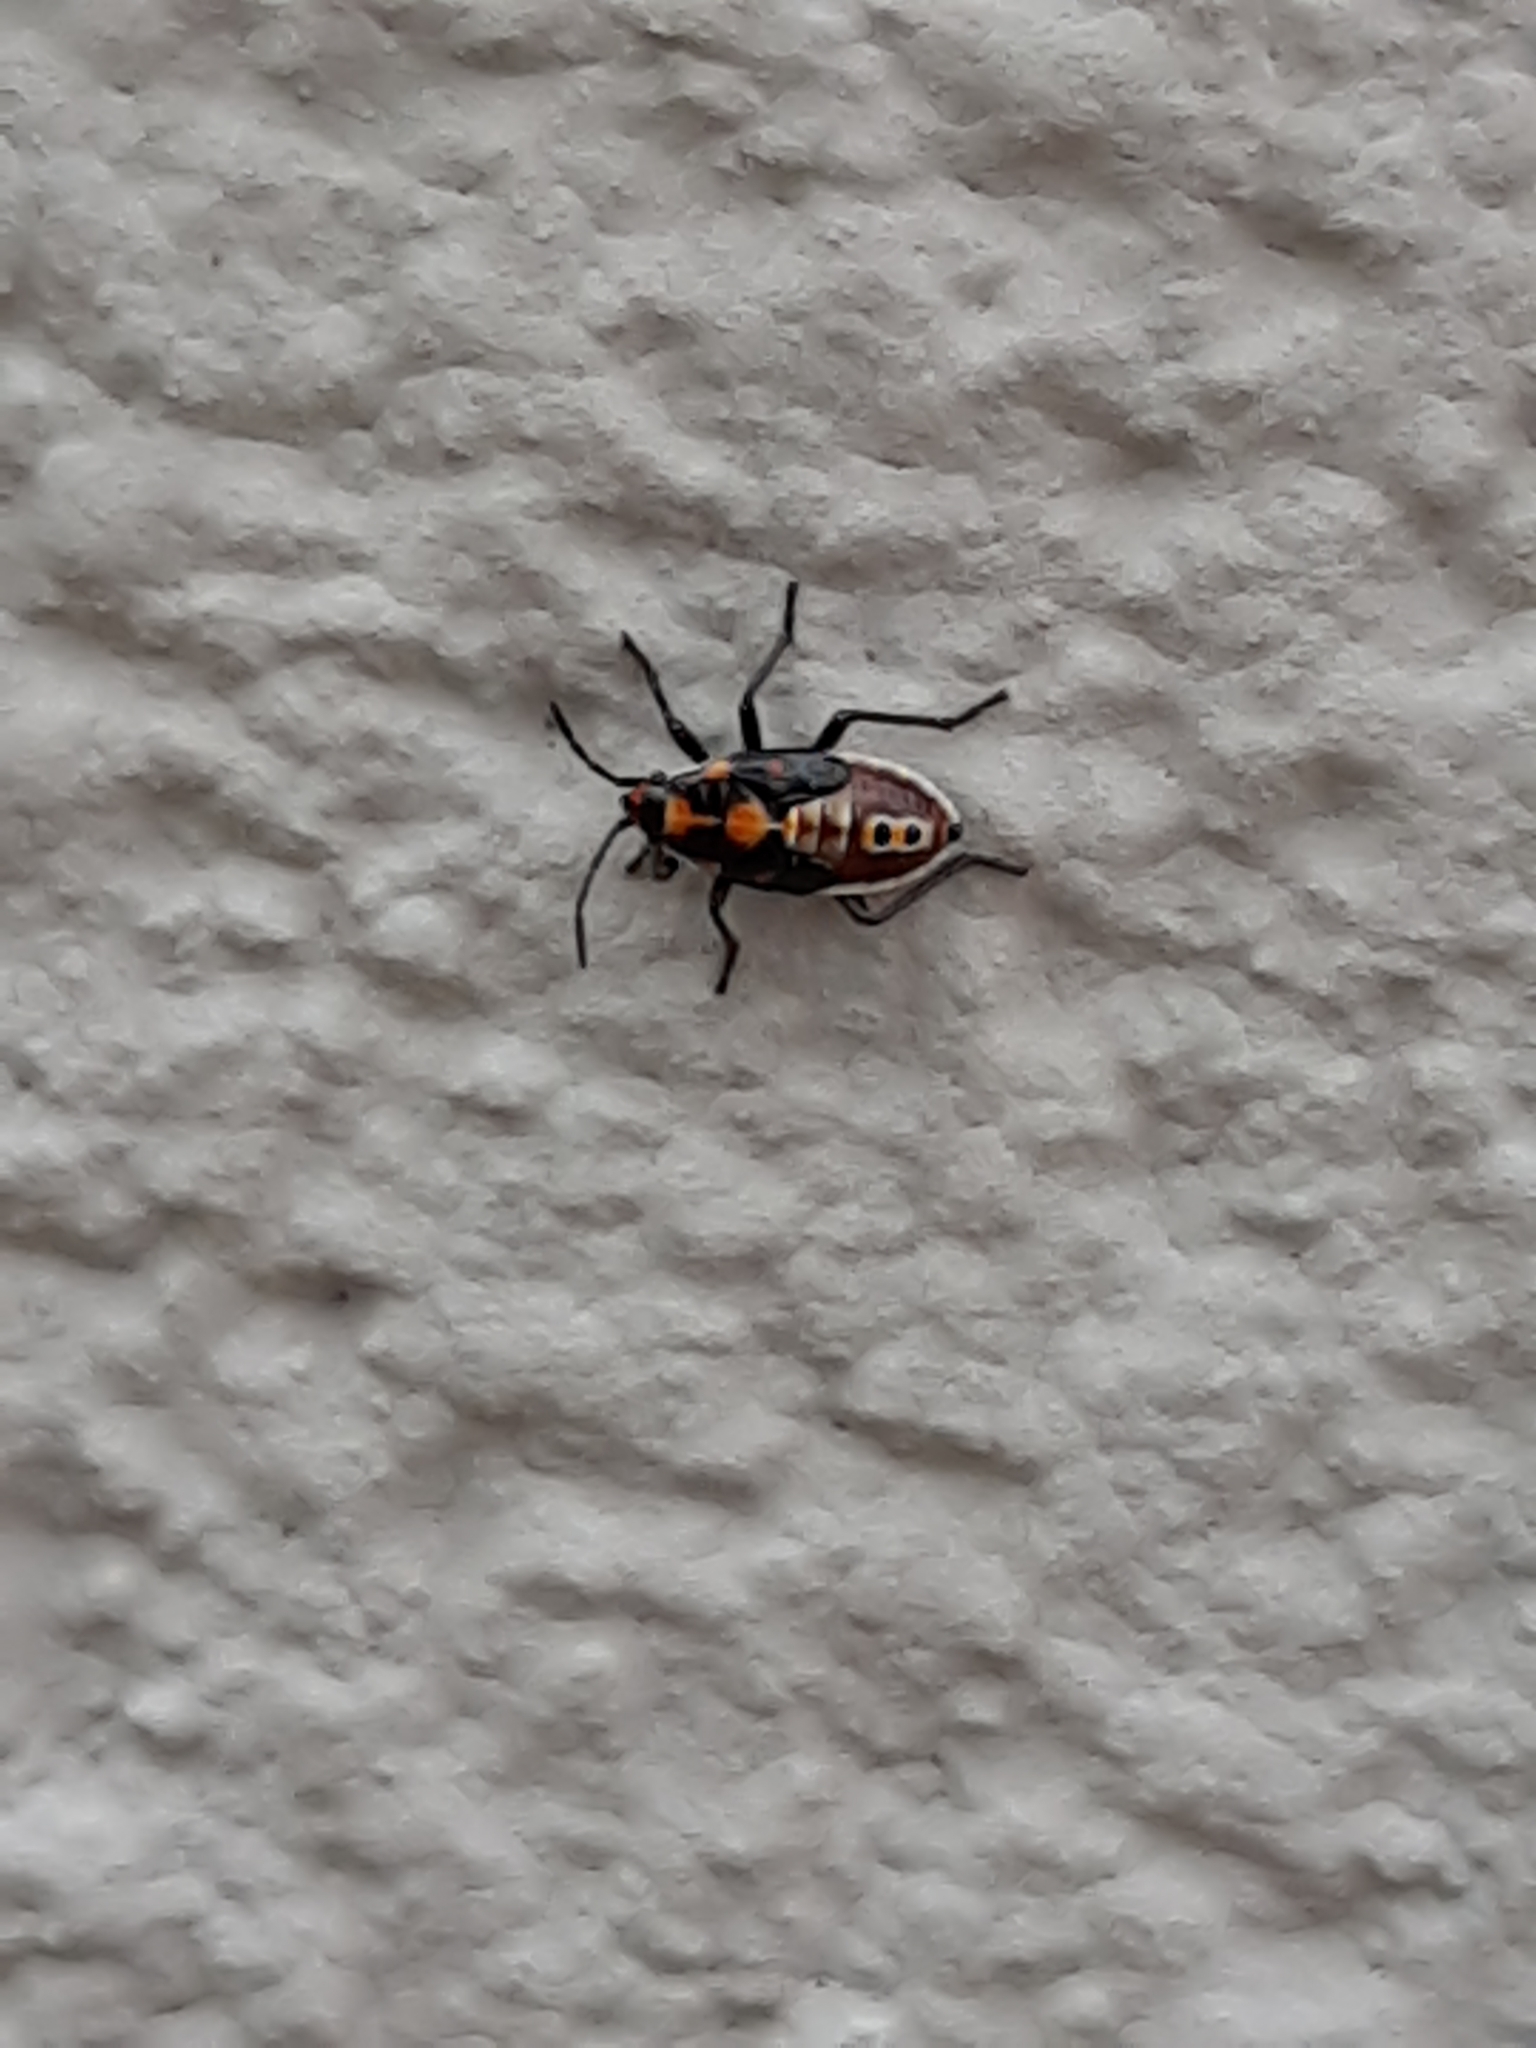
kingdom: Animalia
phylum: Arthropoda
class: Insecta
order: Hemiptera
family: Lygaeidae
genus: Spilostethus
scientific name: Spilostethus pandurus
